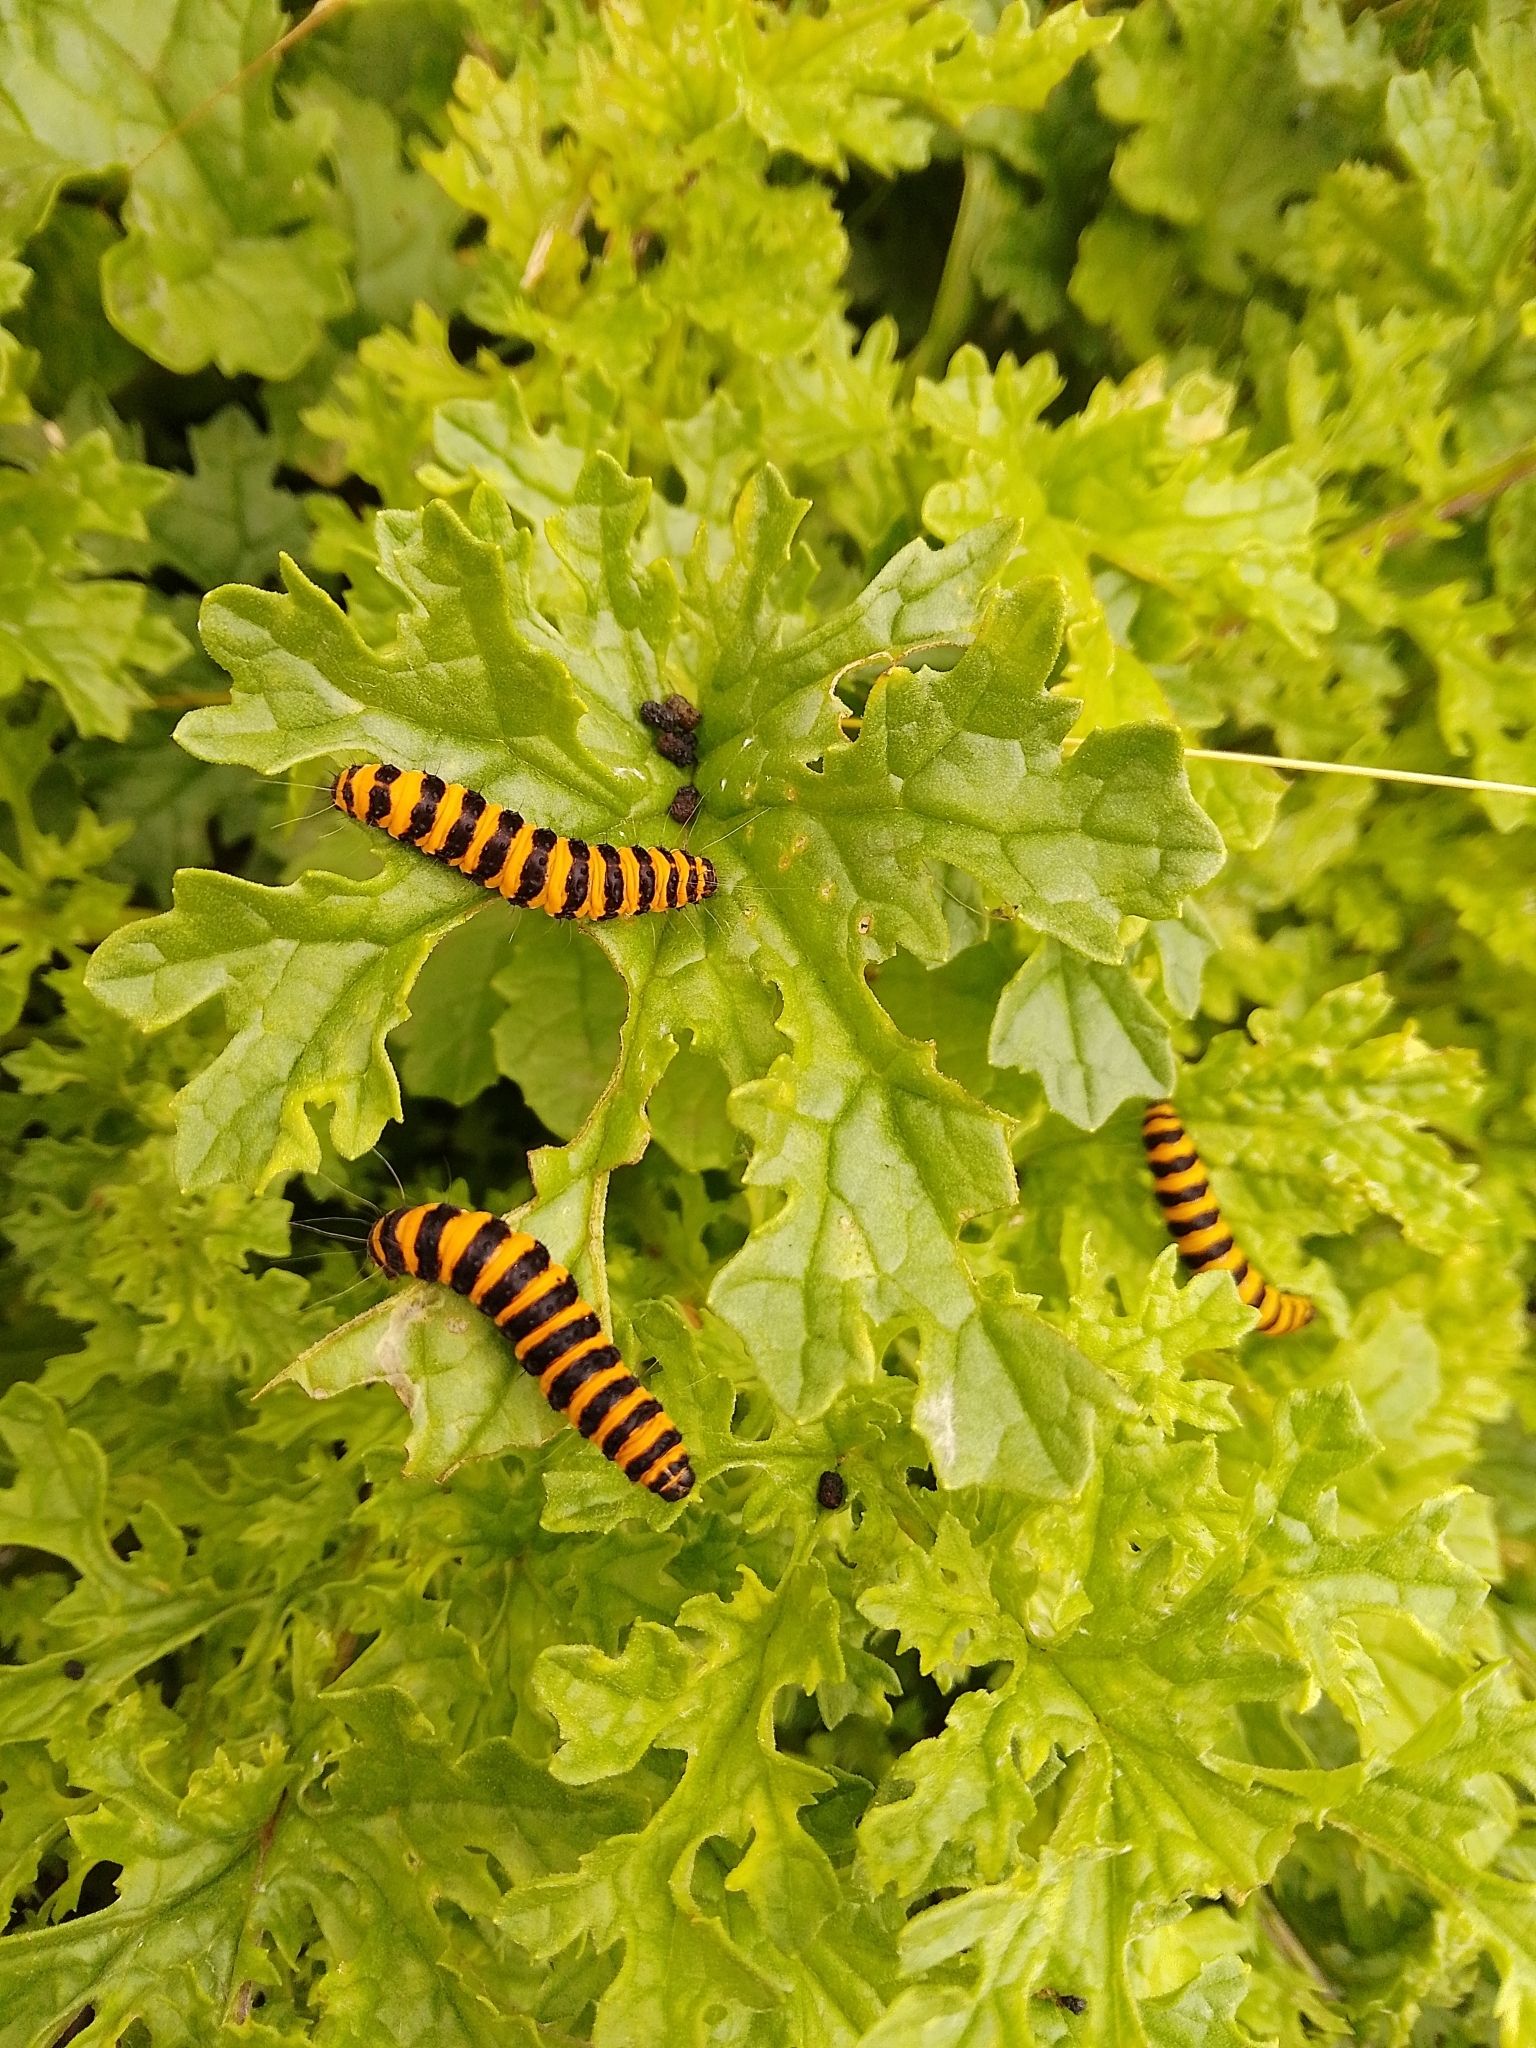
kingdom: Animalia
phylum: Arthropoda
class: Insecta
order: Lepidoptera
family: Erebidae
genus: Tyria
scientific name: Tyria jacobaeae
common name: Cinnabar
